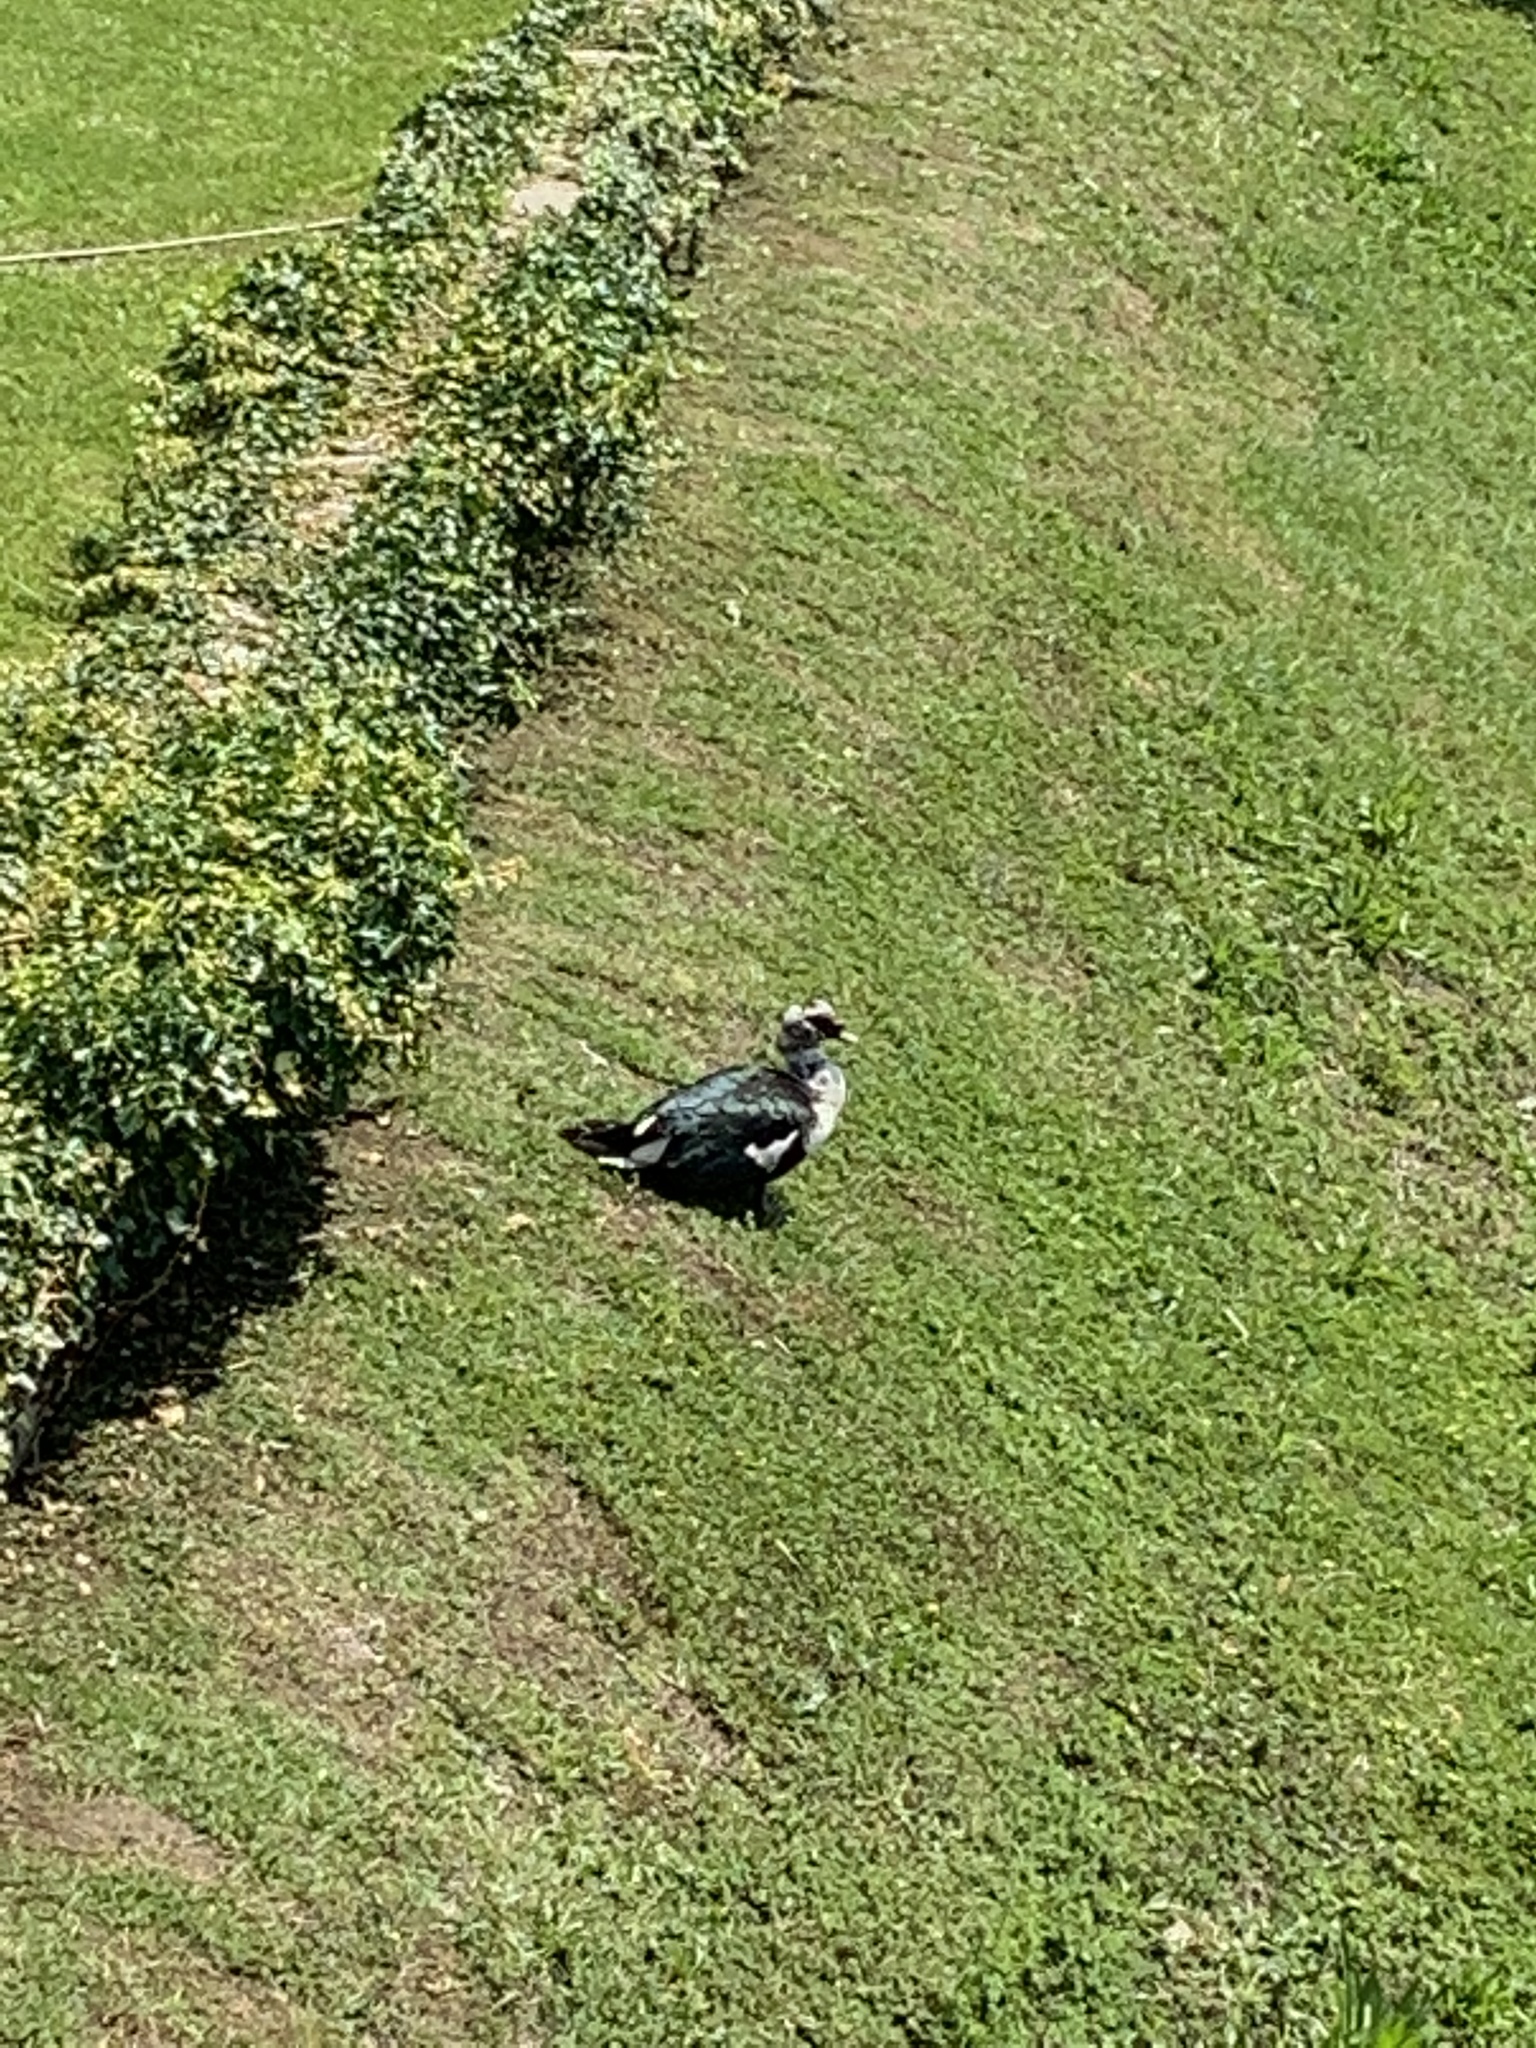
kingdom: Animalia
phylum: Chordata
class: Aves
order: Anseriformes
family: Anatidae
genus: Cairina
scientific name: Cairina moschata
